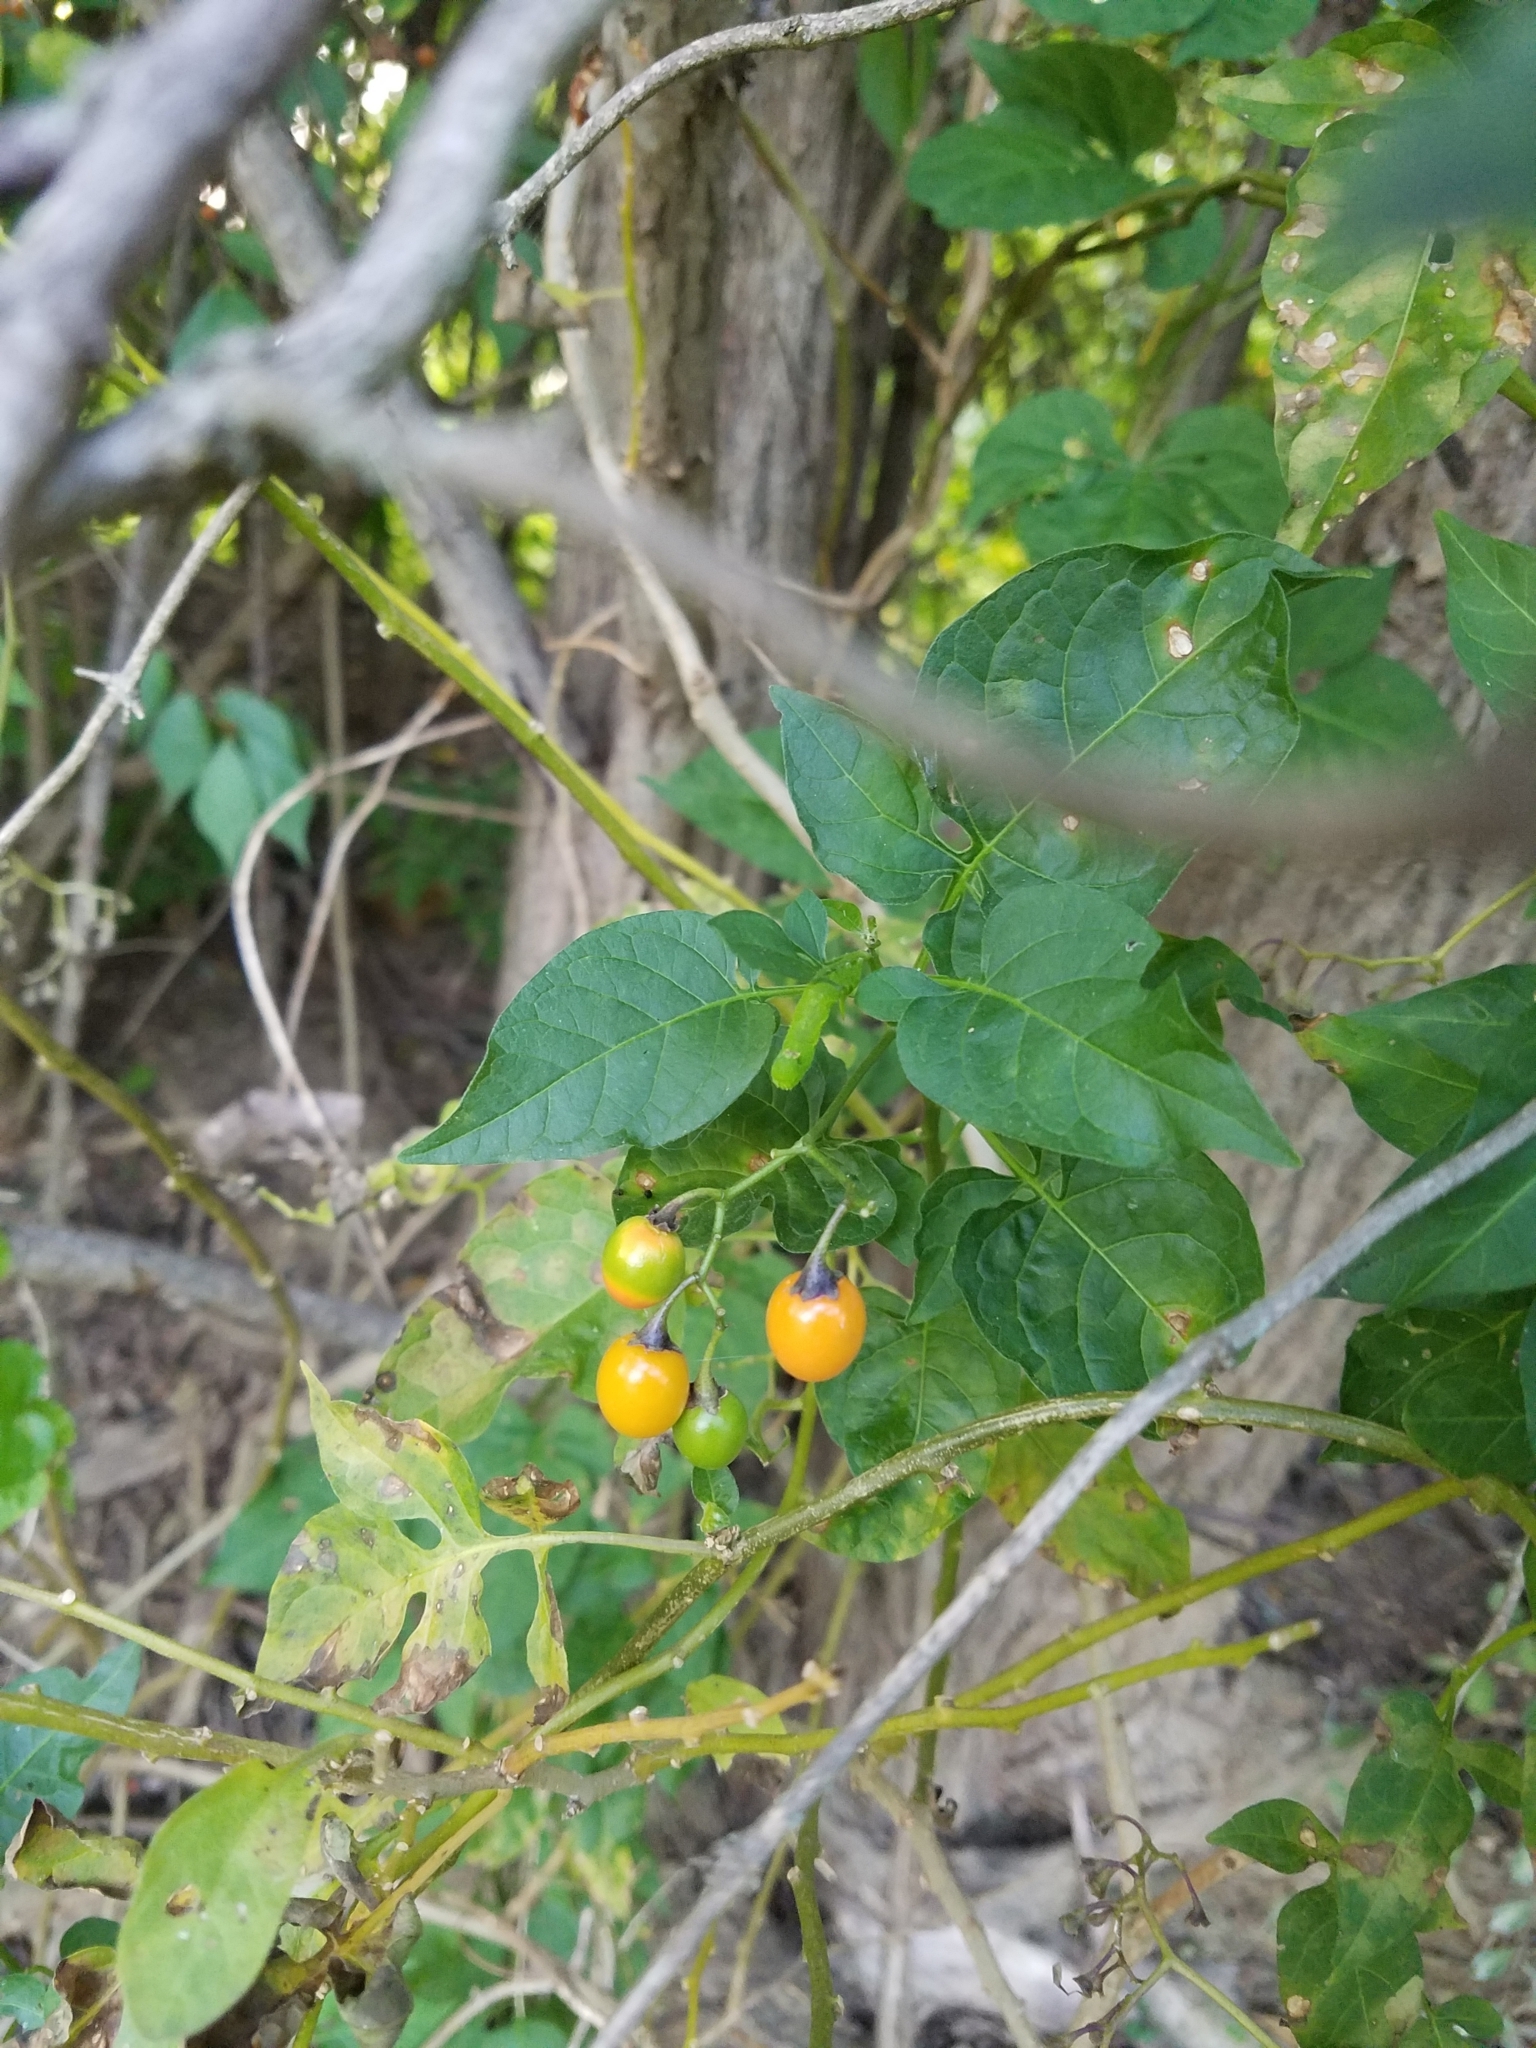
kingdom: Plantae
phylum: Tracheophyta
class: Magnoliopsida
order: Solanales
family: Solanaceae
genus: Solanum
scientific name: Solanum dulcamara
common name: Climbing nightshade
